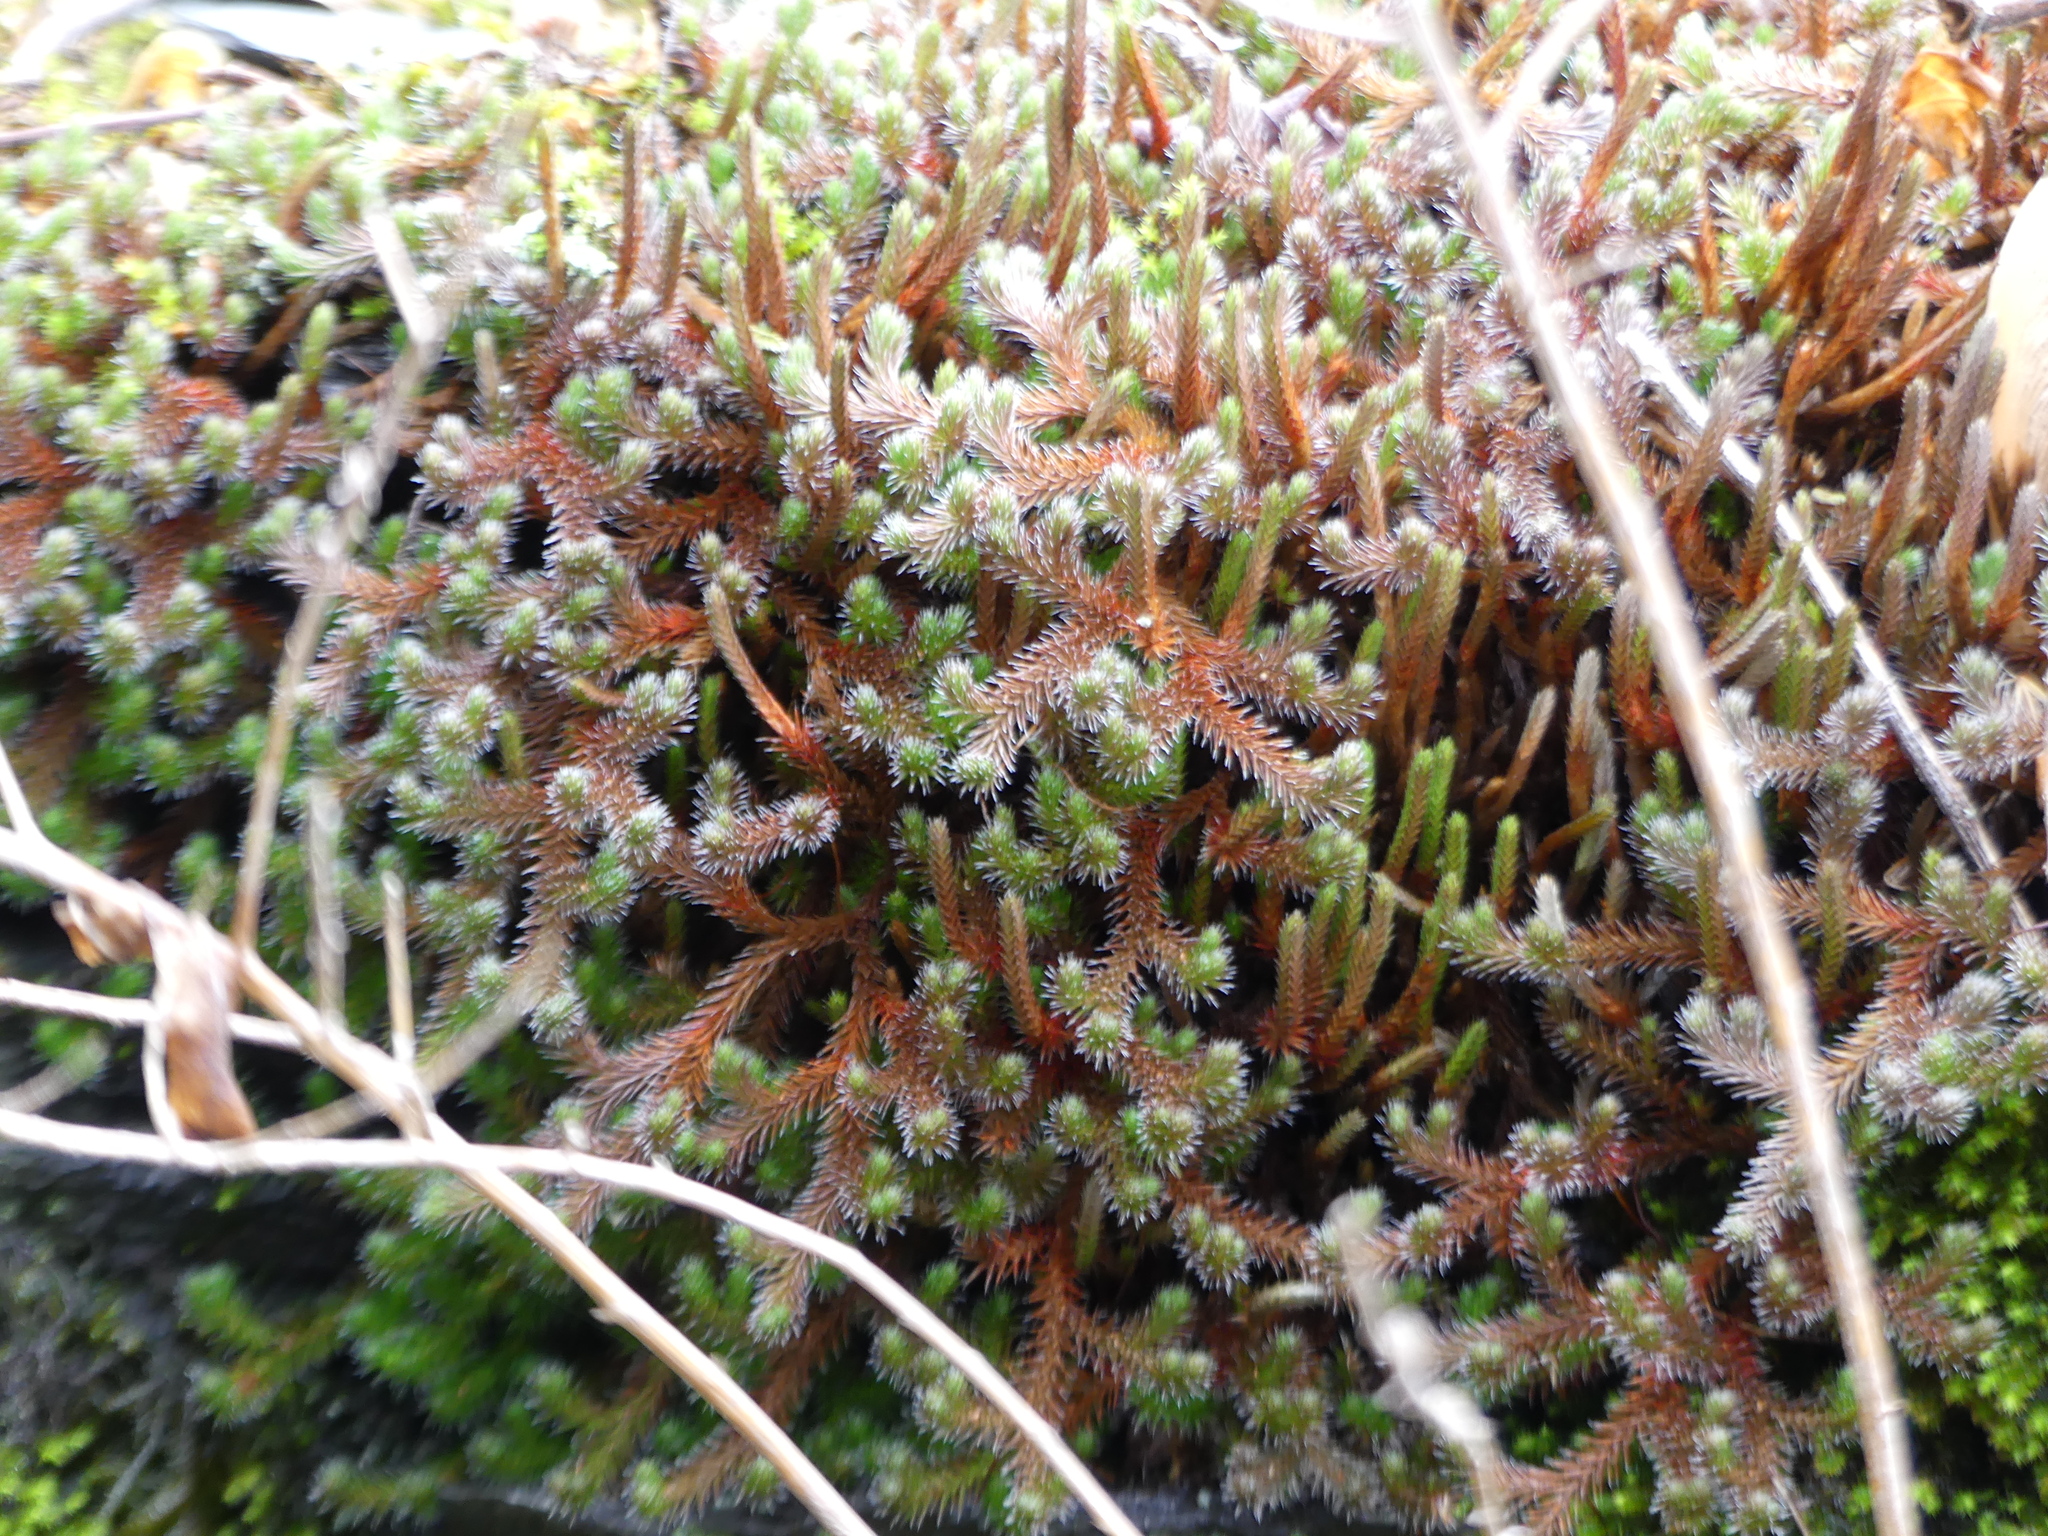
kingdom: Plantae
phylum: Tracheophyta
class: Lycopodiopsida
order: Selaginellales
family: Selaginellaceae
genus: Selaginella
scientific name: Selaginella rupestris
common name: Dwarf spikemoss
